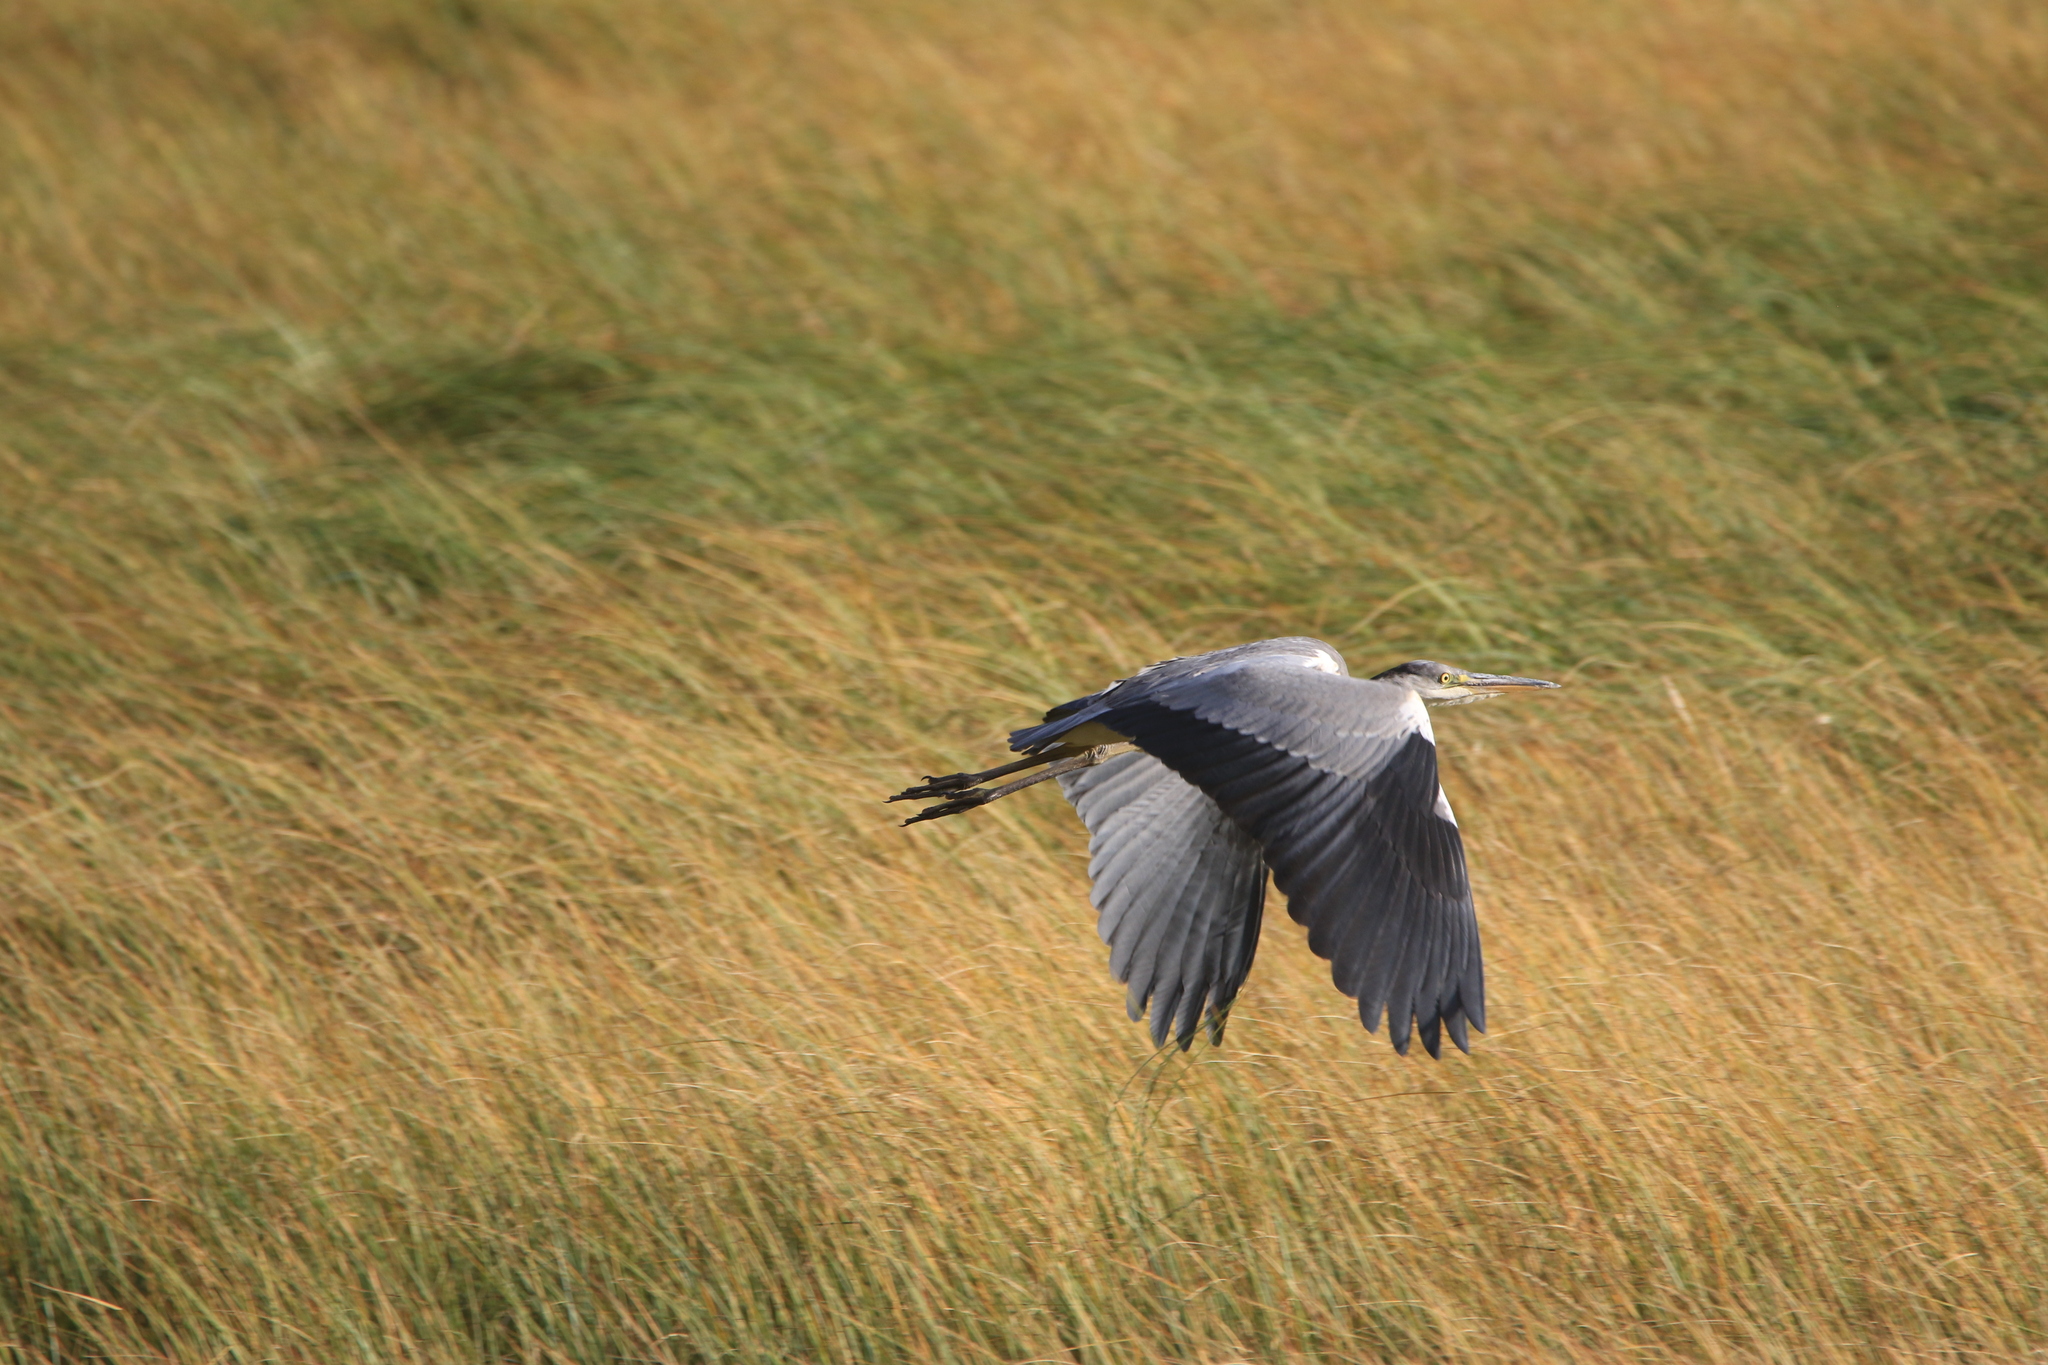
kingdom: Animalia
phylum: Chordata
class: Aves
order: Pelecaniformes
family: Ardeidae
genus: Ardea
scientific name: Ardea cinerea
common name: Grey heron
